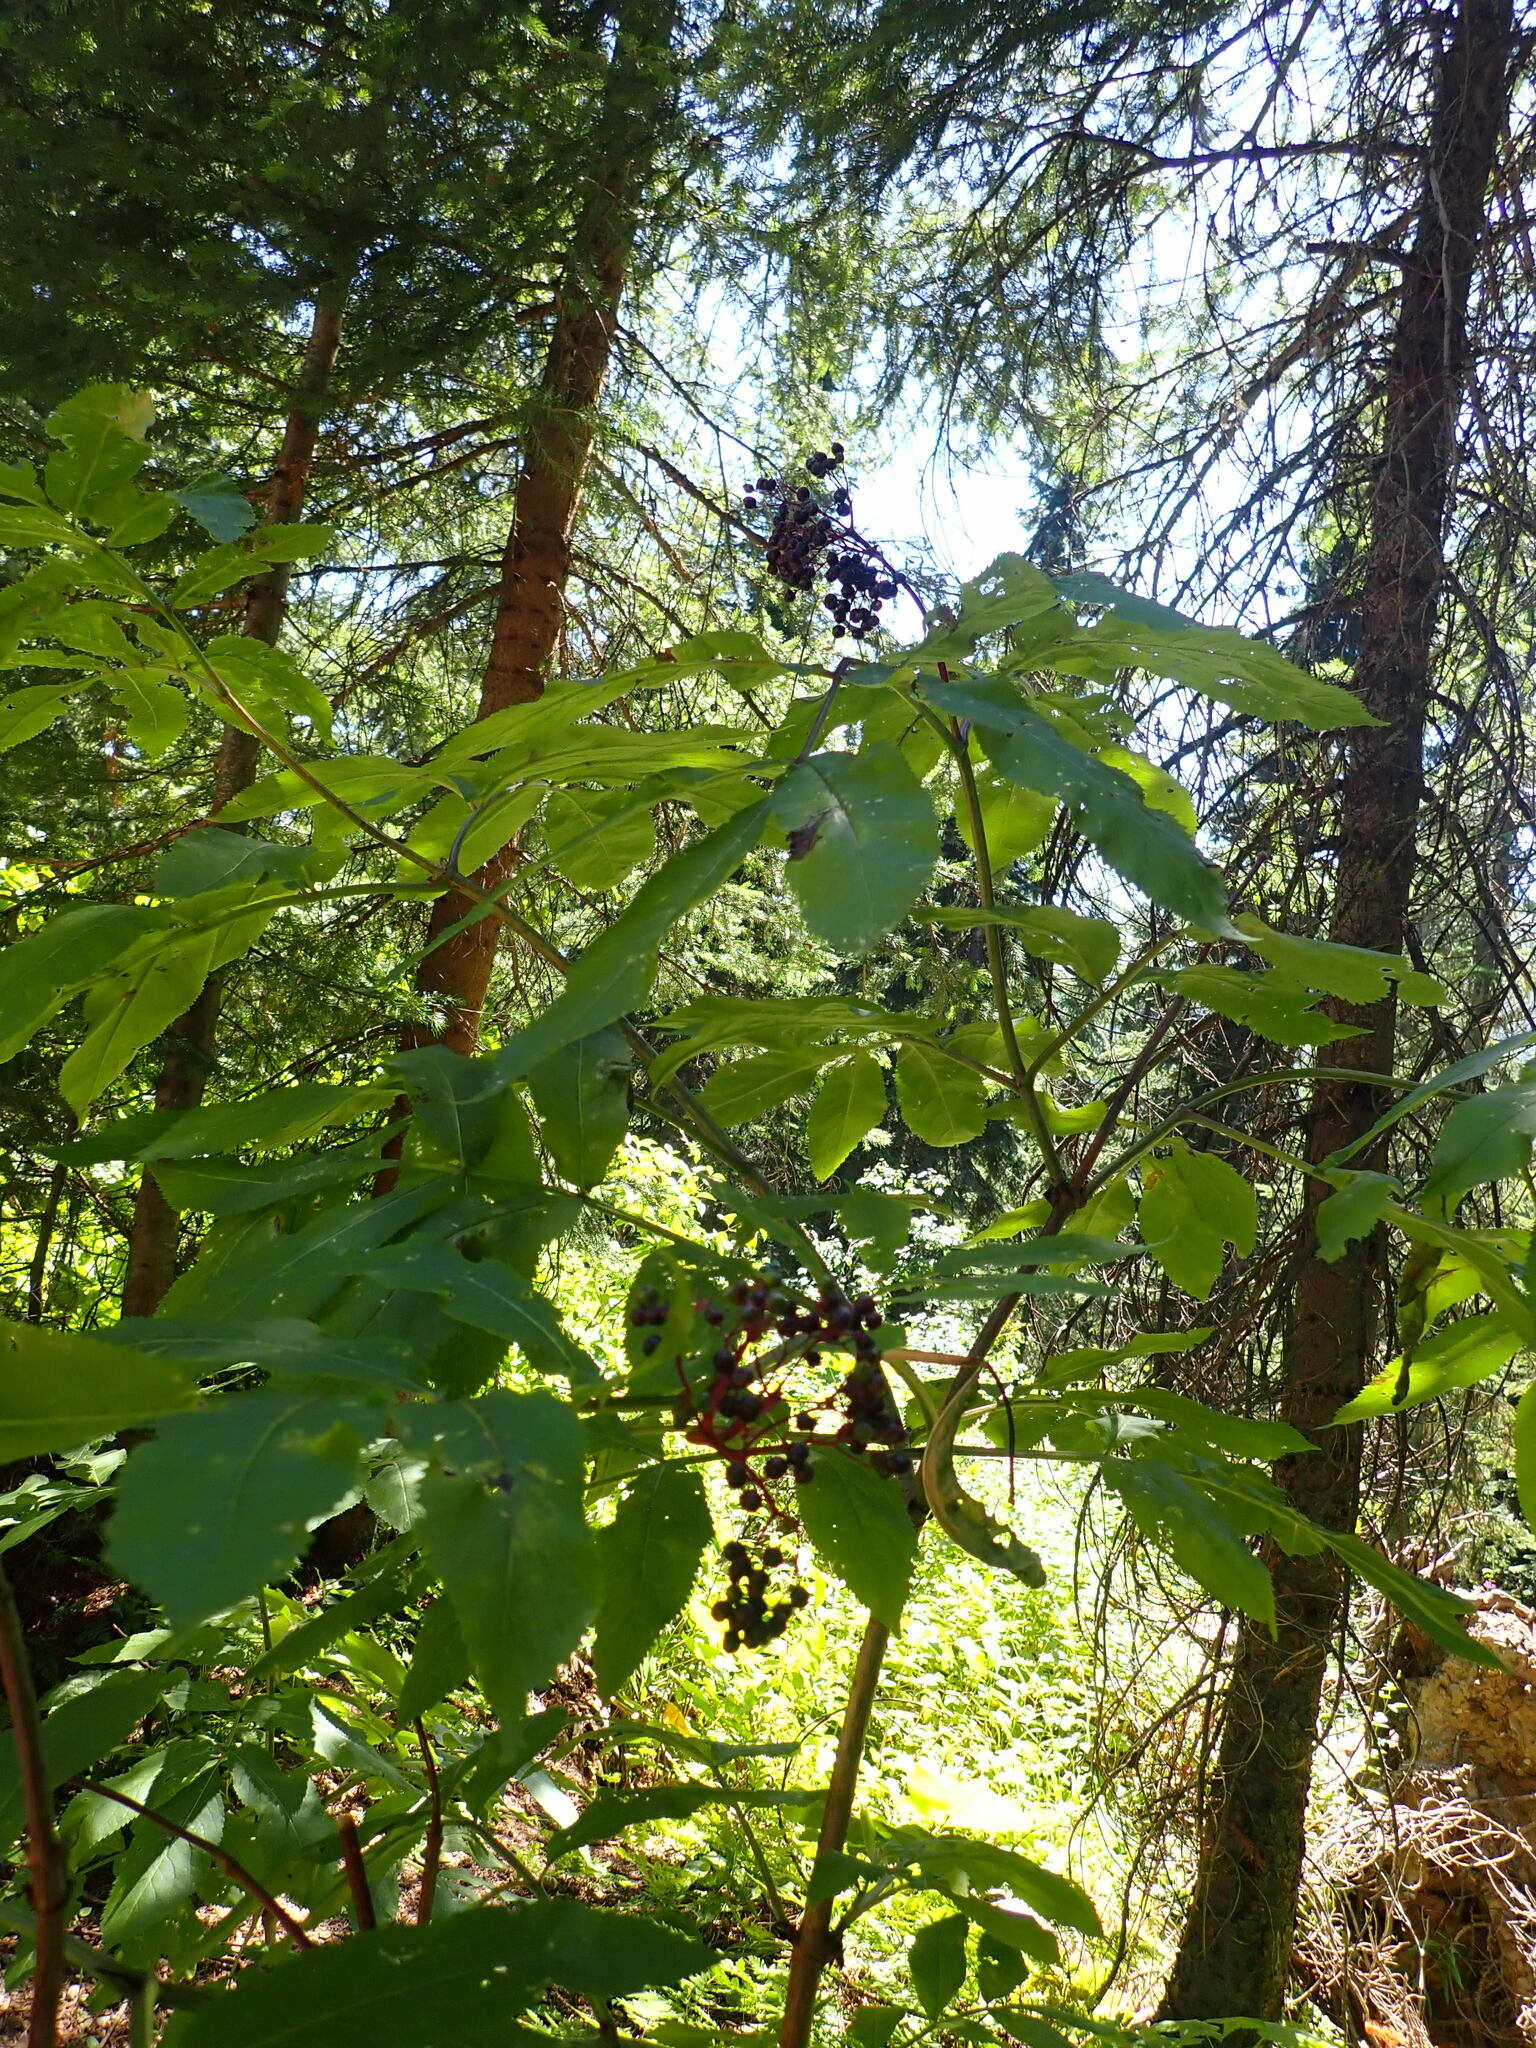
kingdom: Plantae
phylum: Tracheophyta
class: Magnoliopsida
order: Dipsacales
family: Viburnaceae
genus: Sambucus
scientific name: Sambucus racemosa
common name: Red-berried elder
